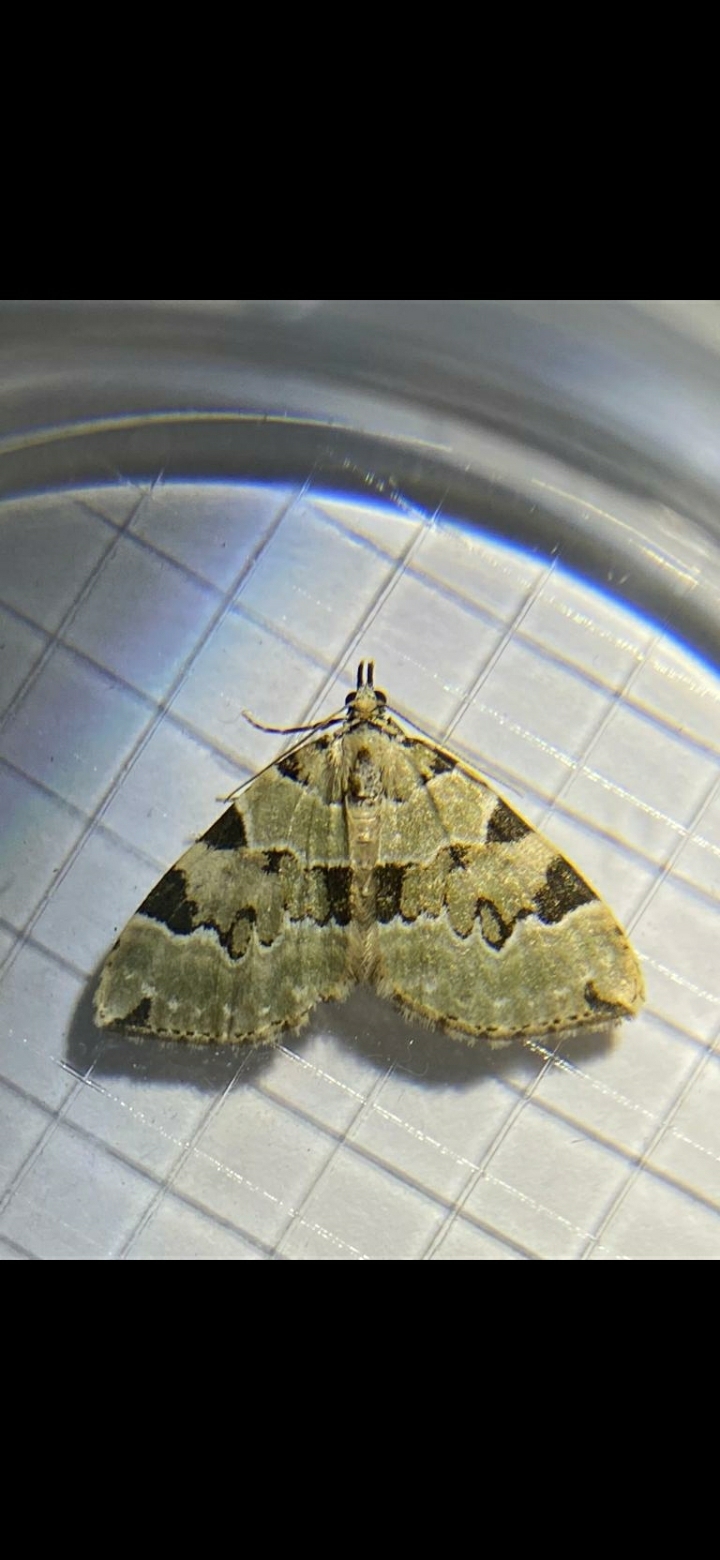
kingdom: Animalia
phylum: Arthropoda
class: Insecta
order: Lepidoptera
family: Geometridae
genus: Colostygia
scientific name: Colostygia pectinataria
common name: Green carpet
